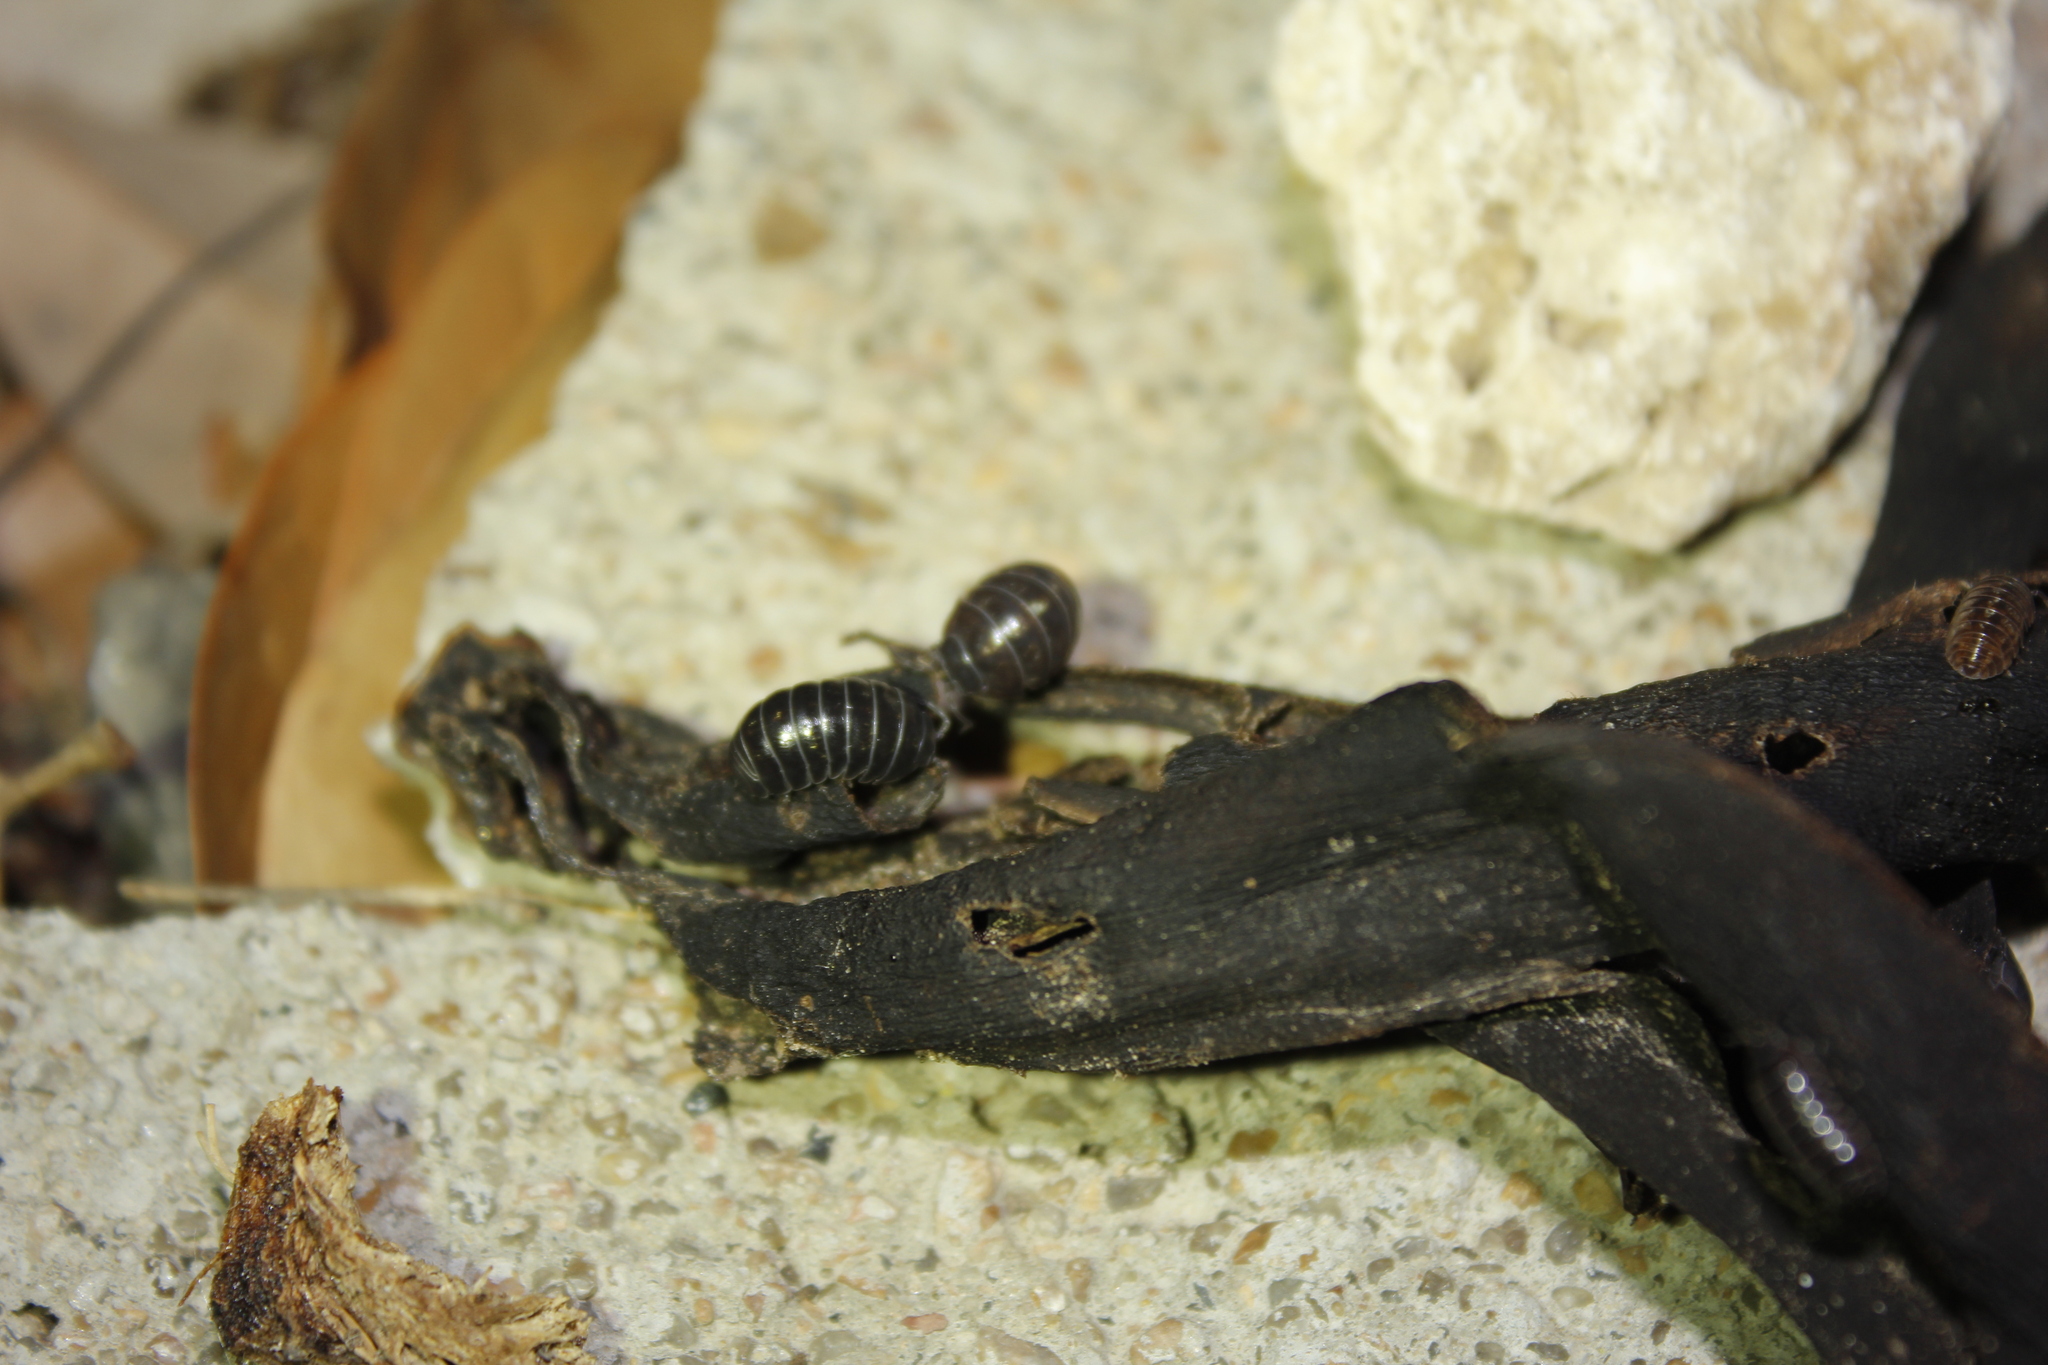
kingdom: Animalia
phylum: Arthropoda
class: Malacostraca
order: Isopoda
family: Armadillidiidae
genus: Armadillidium
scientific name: Armadillidium vulgare
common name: Common pill woodlouse
